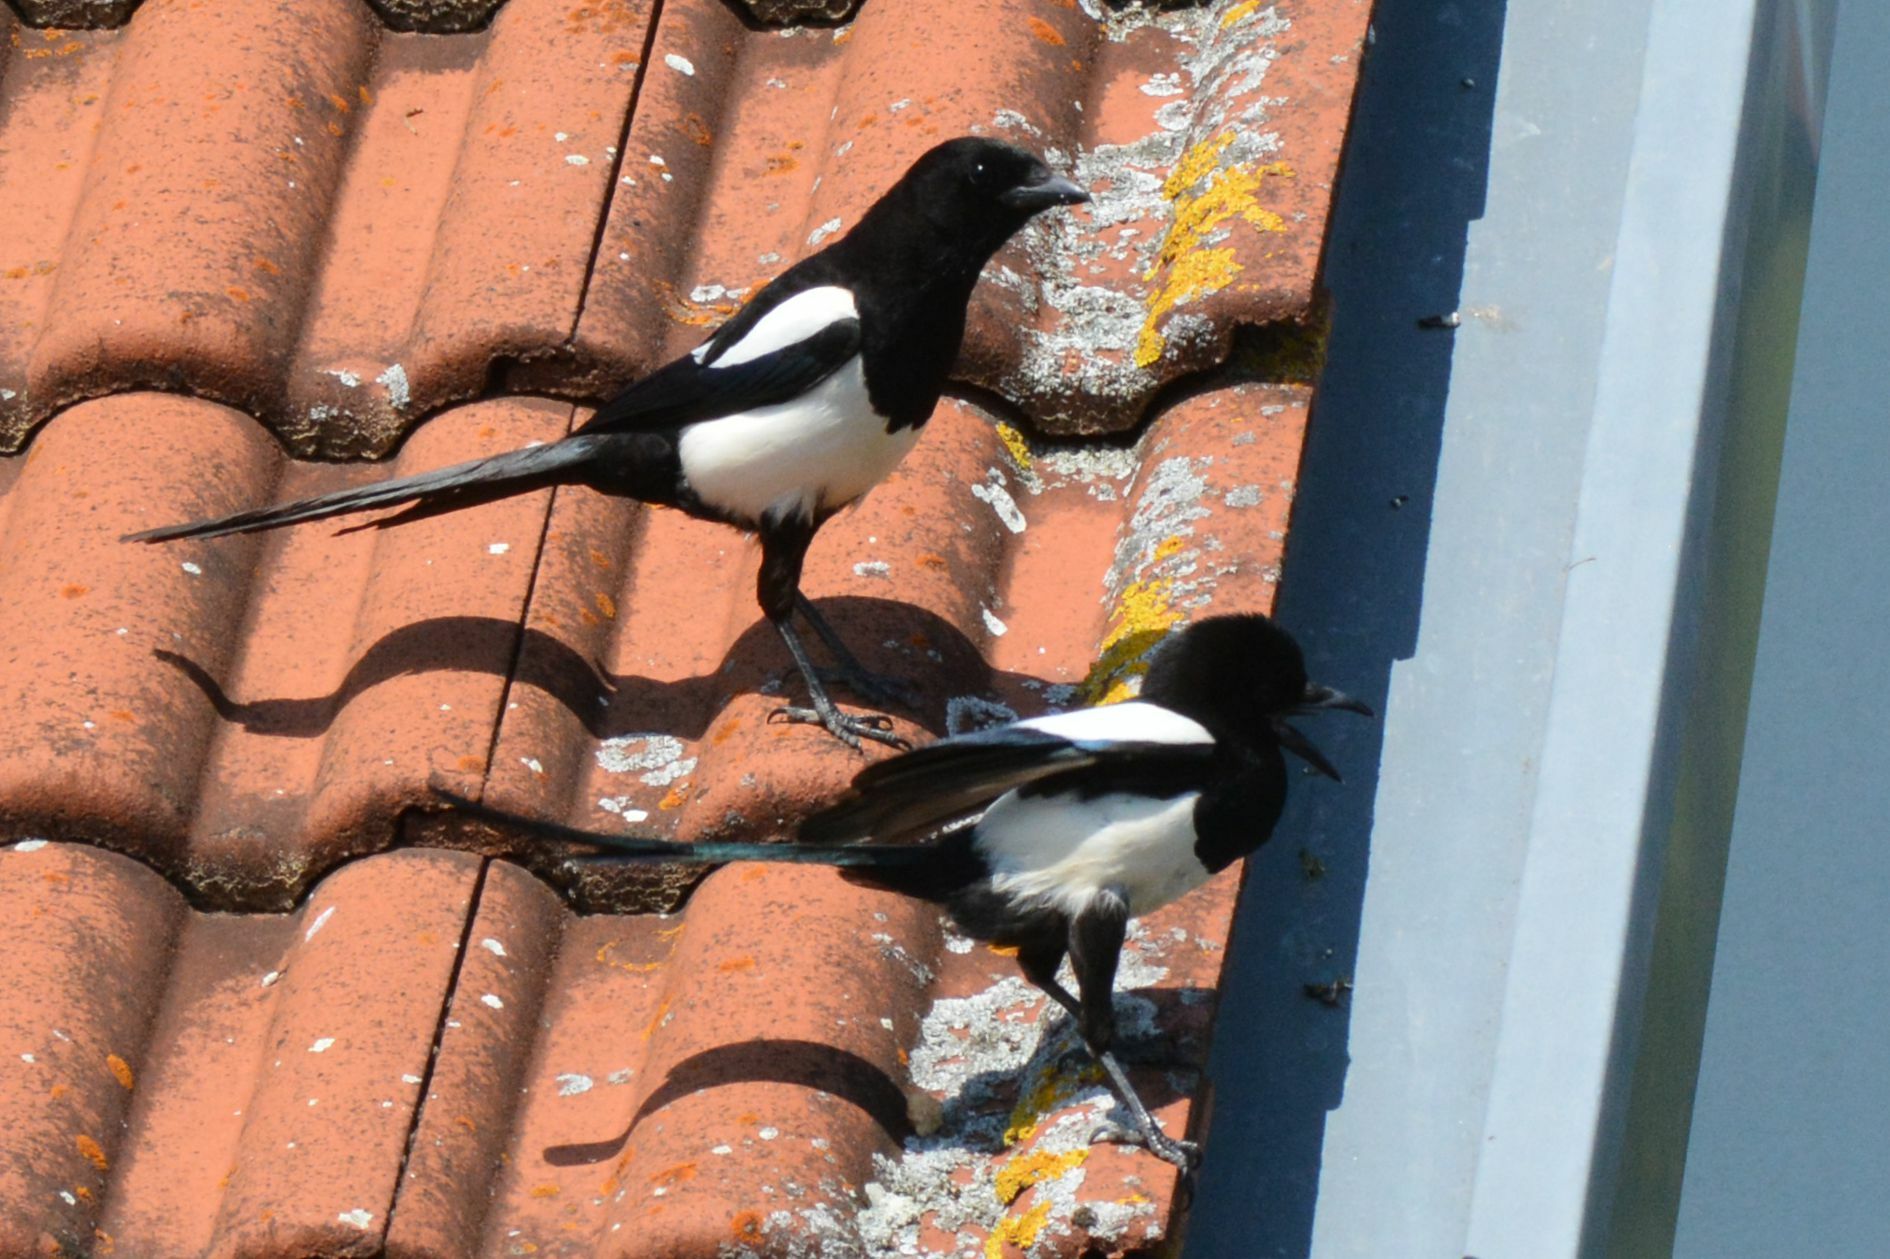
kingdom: Animalia
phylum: Chordata
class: Aves
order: Passeriformes
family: Corvidae
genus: Pica
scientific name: Pica pica
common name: Eurasian magpie
